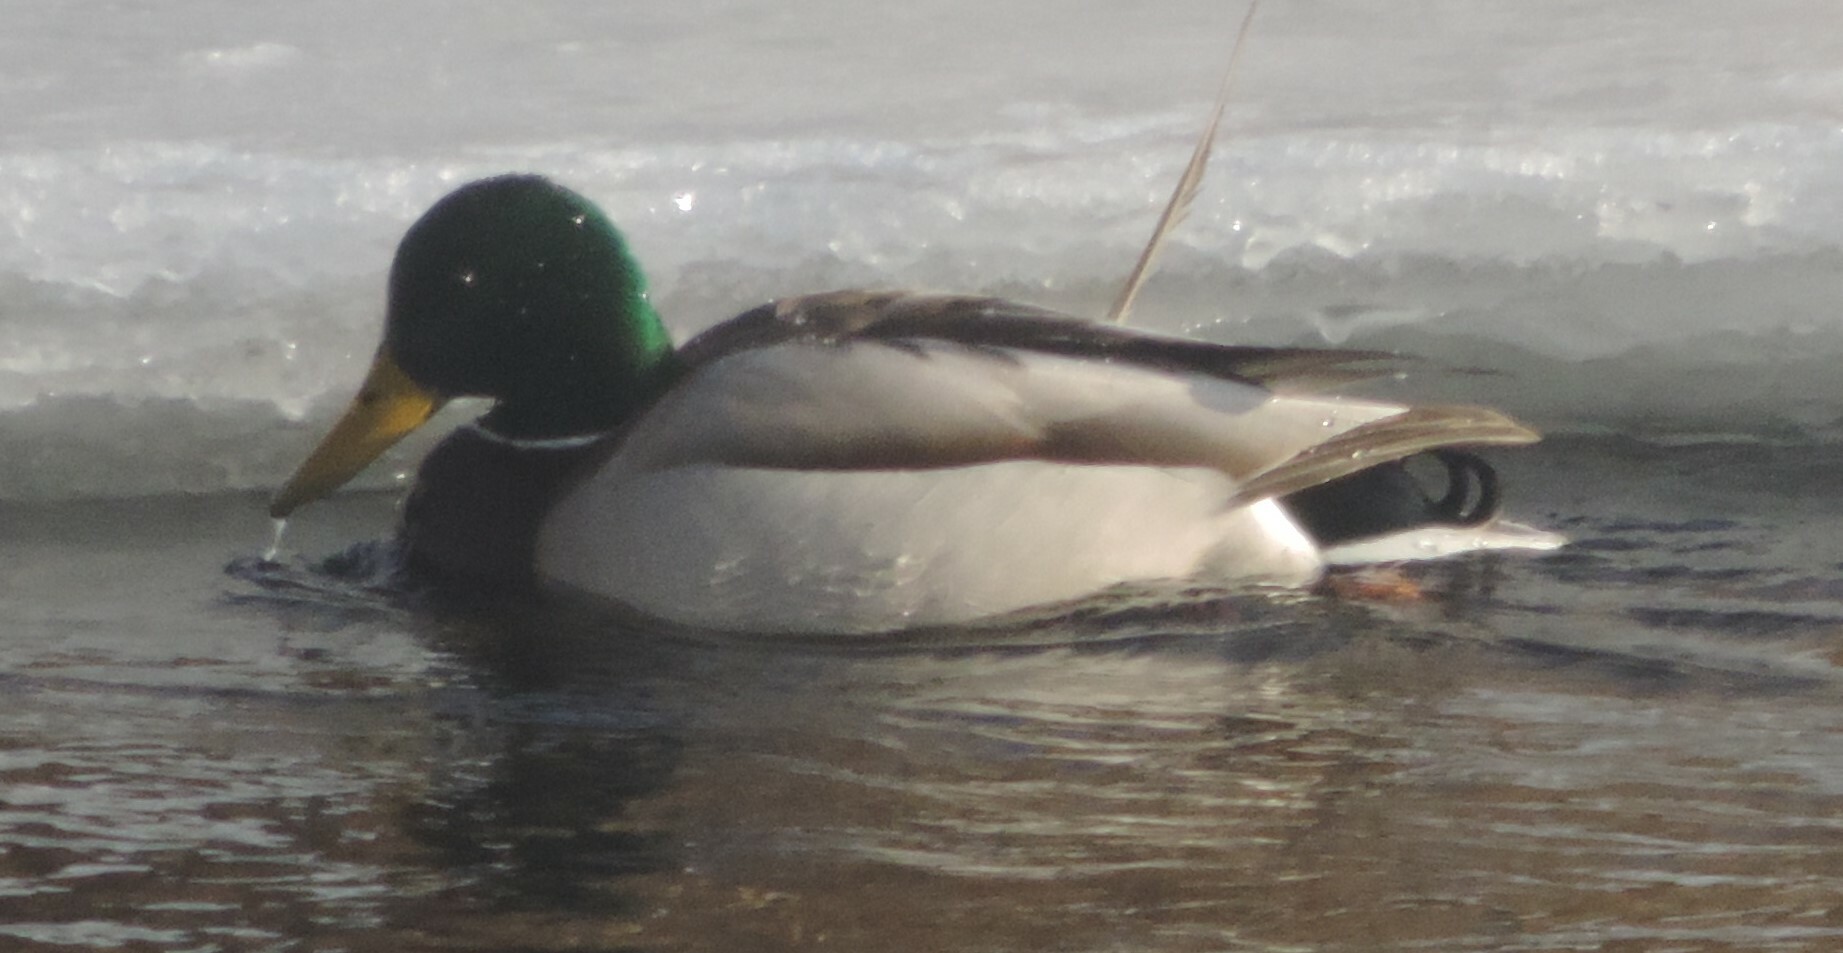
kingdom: Animalia
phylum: Chordata
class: Aves
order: Anseriformes
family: Anatidae
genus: Anas
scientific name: Anas platyrhynchos
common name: Mallard
